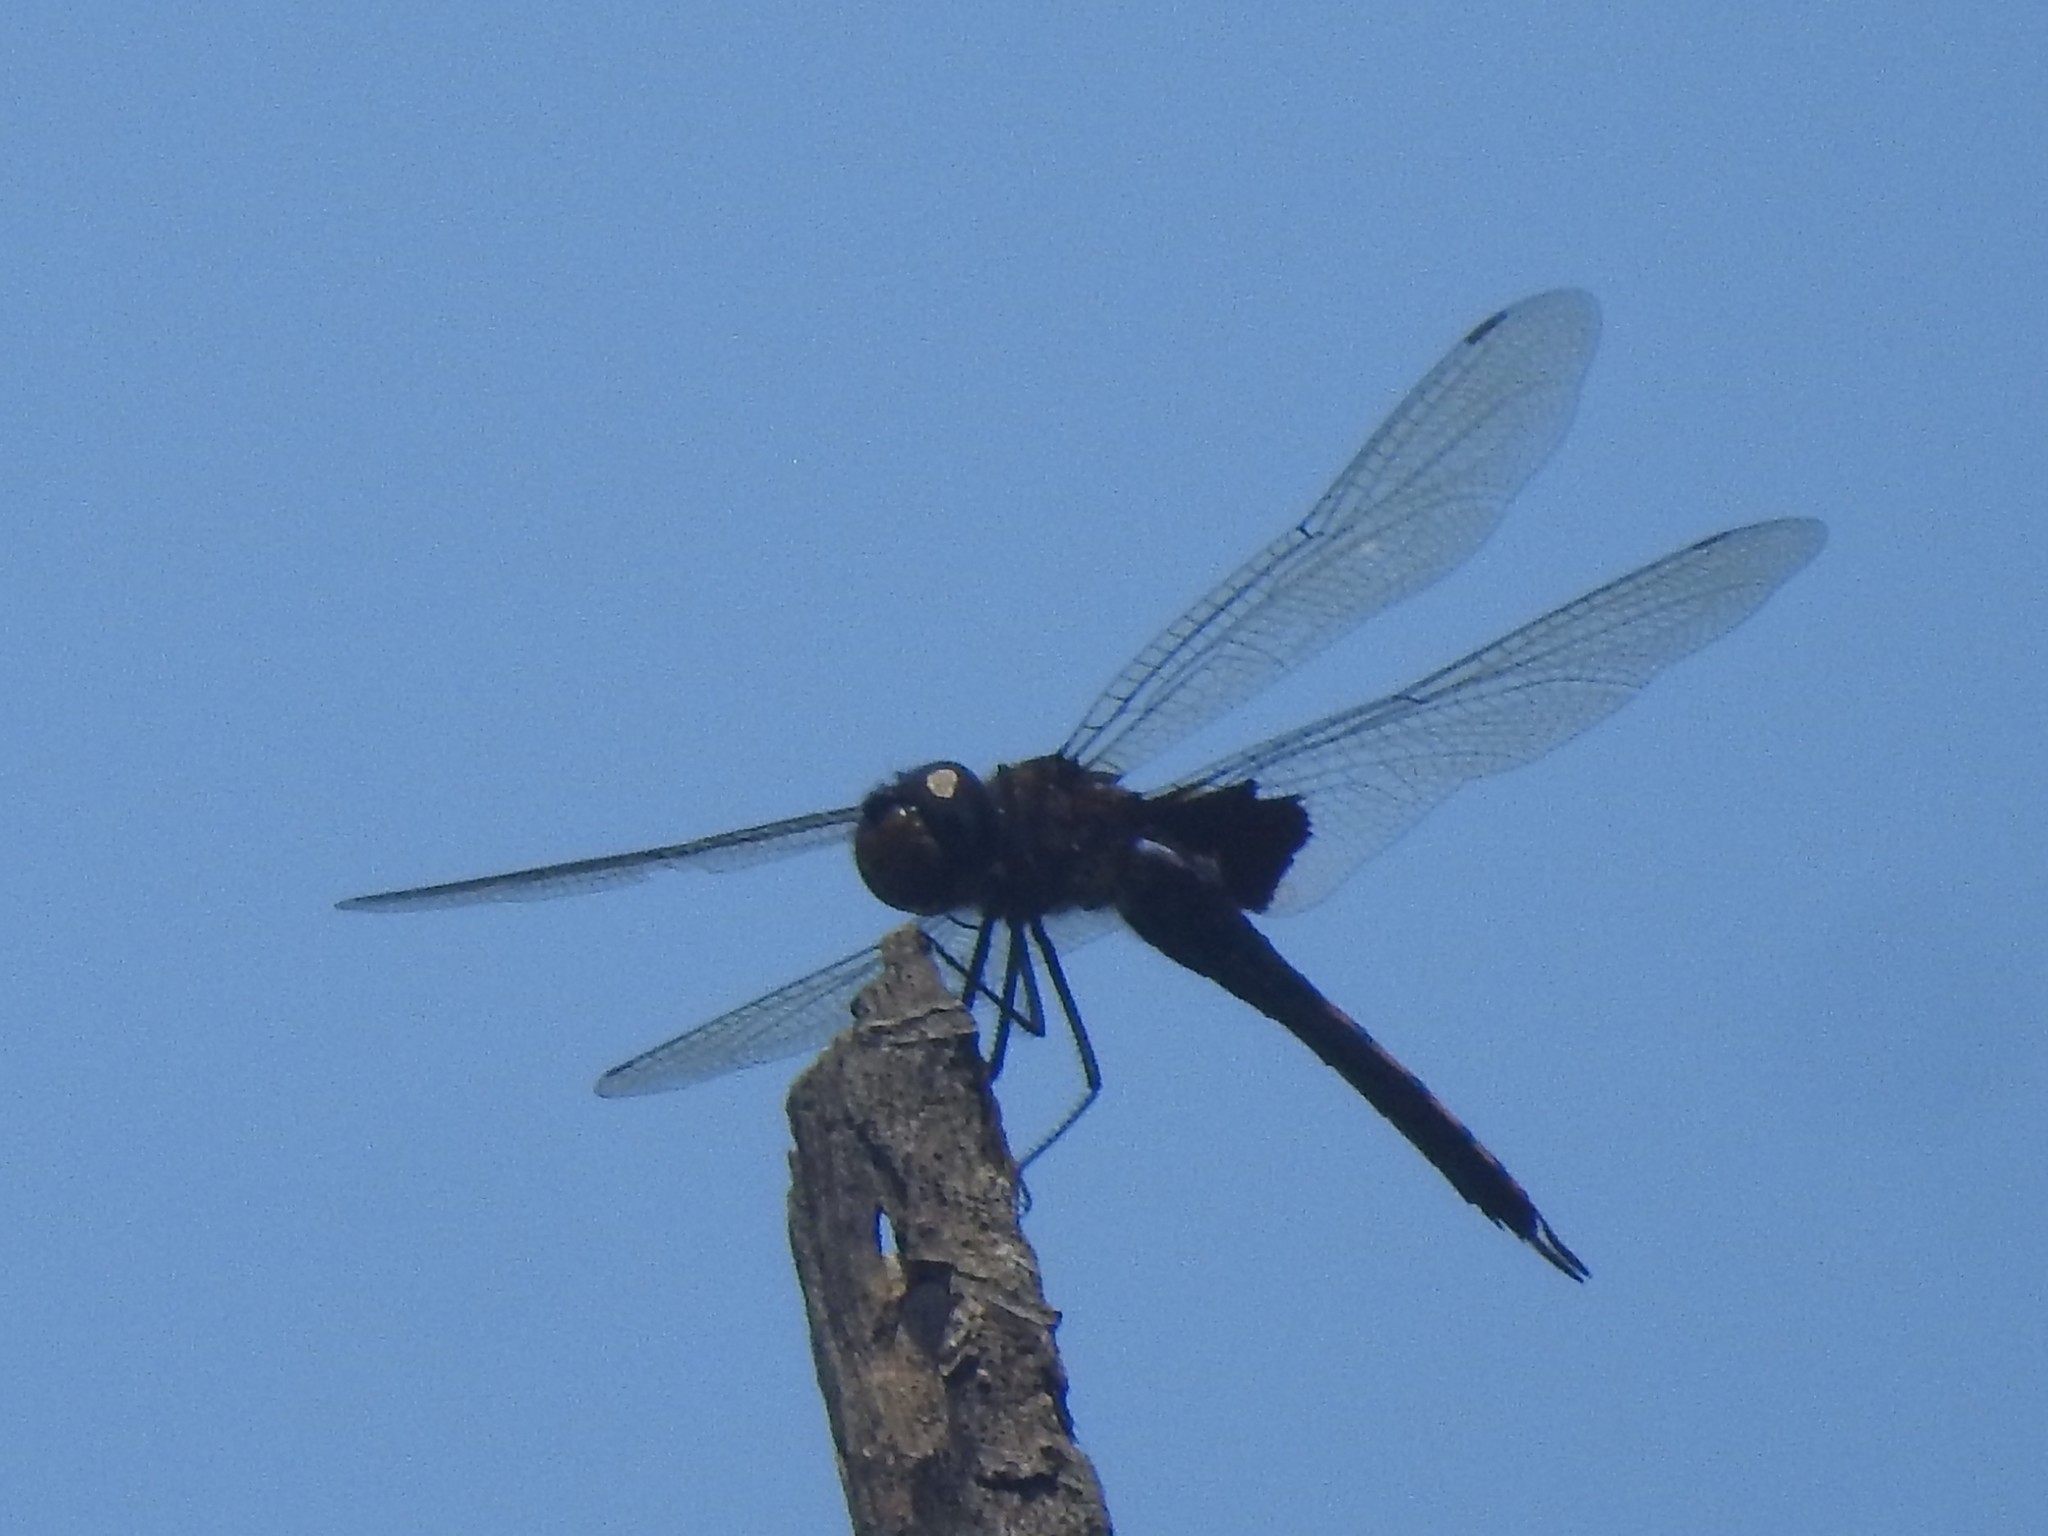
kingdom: Animalia
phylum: Arthropoda
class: Insecta
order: Odonata
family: Libellulidae
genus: Tramea
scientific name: Tramea limbata
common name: Ferruginous glider
